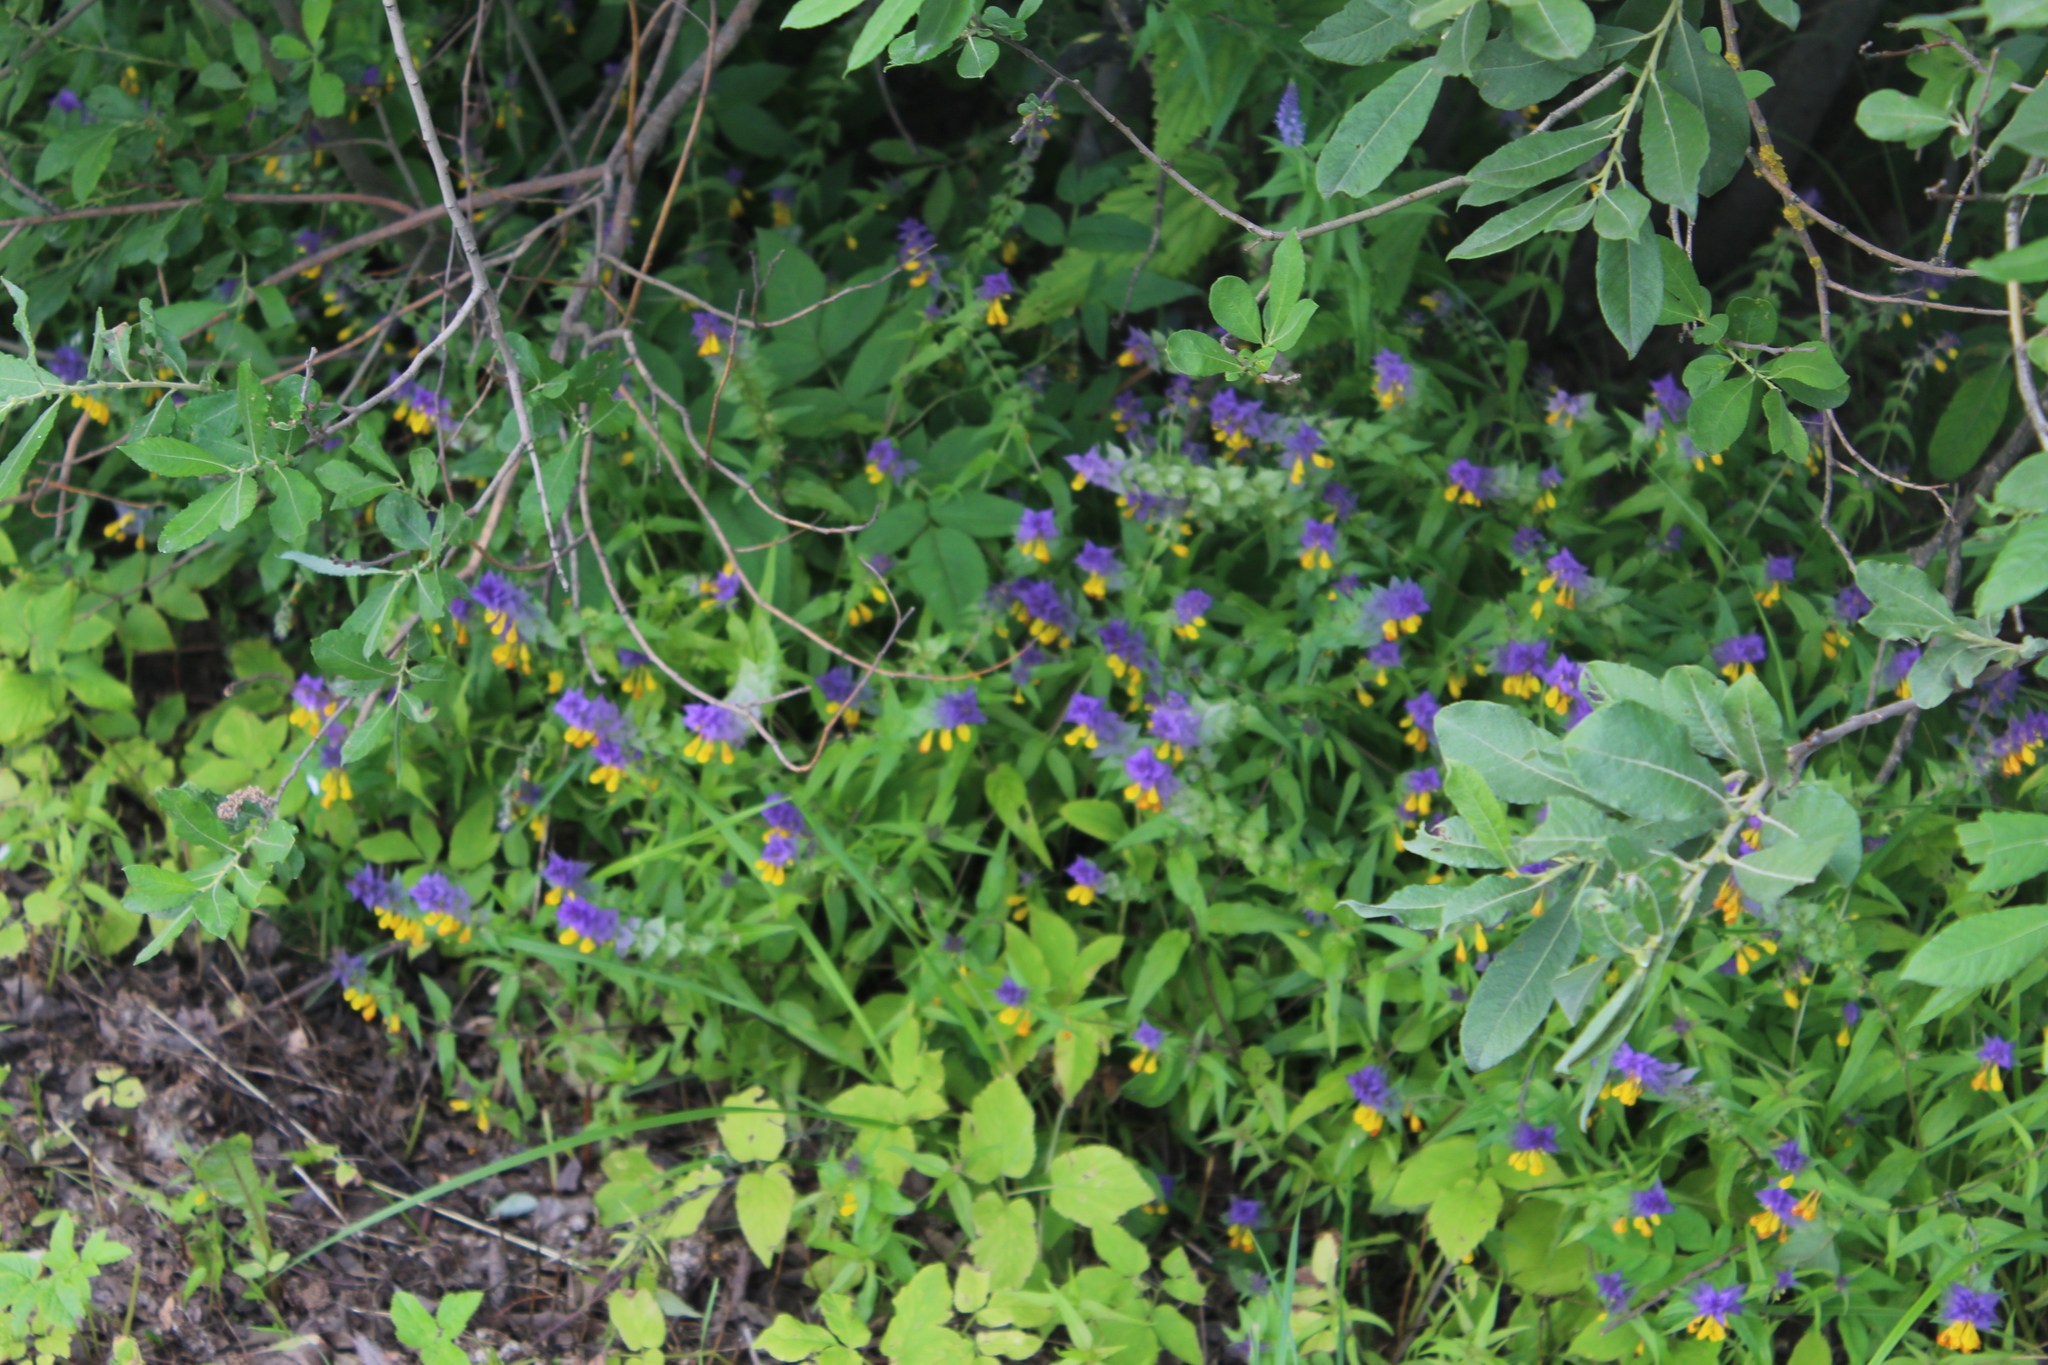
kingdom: Plantae
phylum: Tracheophyta
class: Magnoliopsida
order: Lamiales
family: Orobanchaceae
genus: Melampyrum
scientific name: Melampyrum nemorosum
